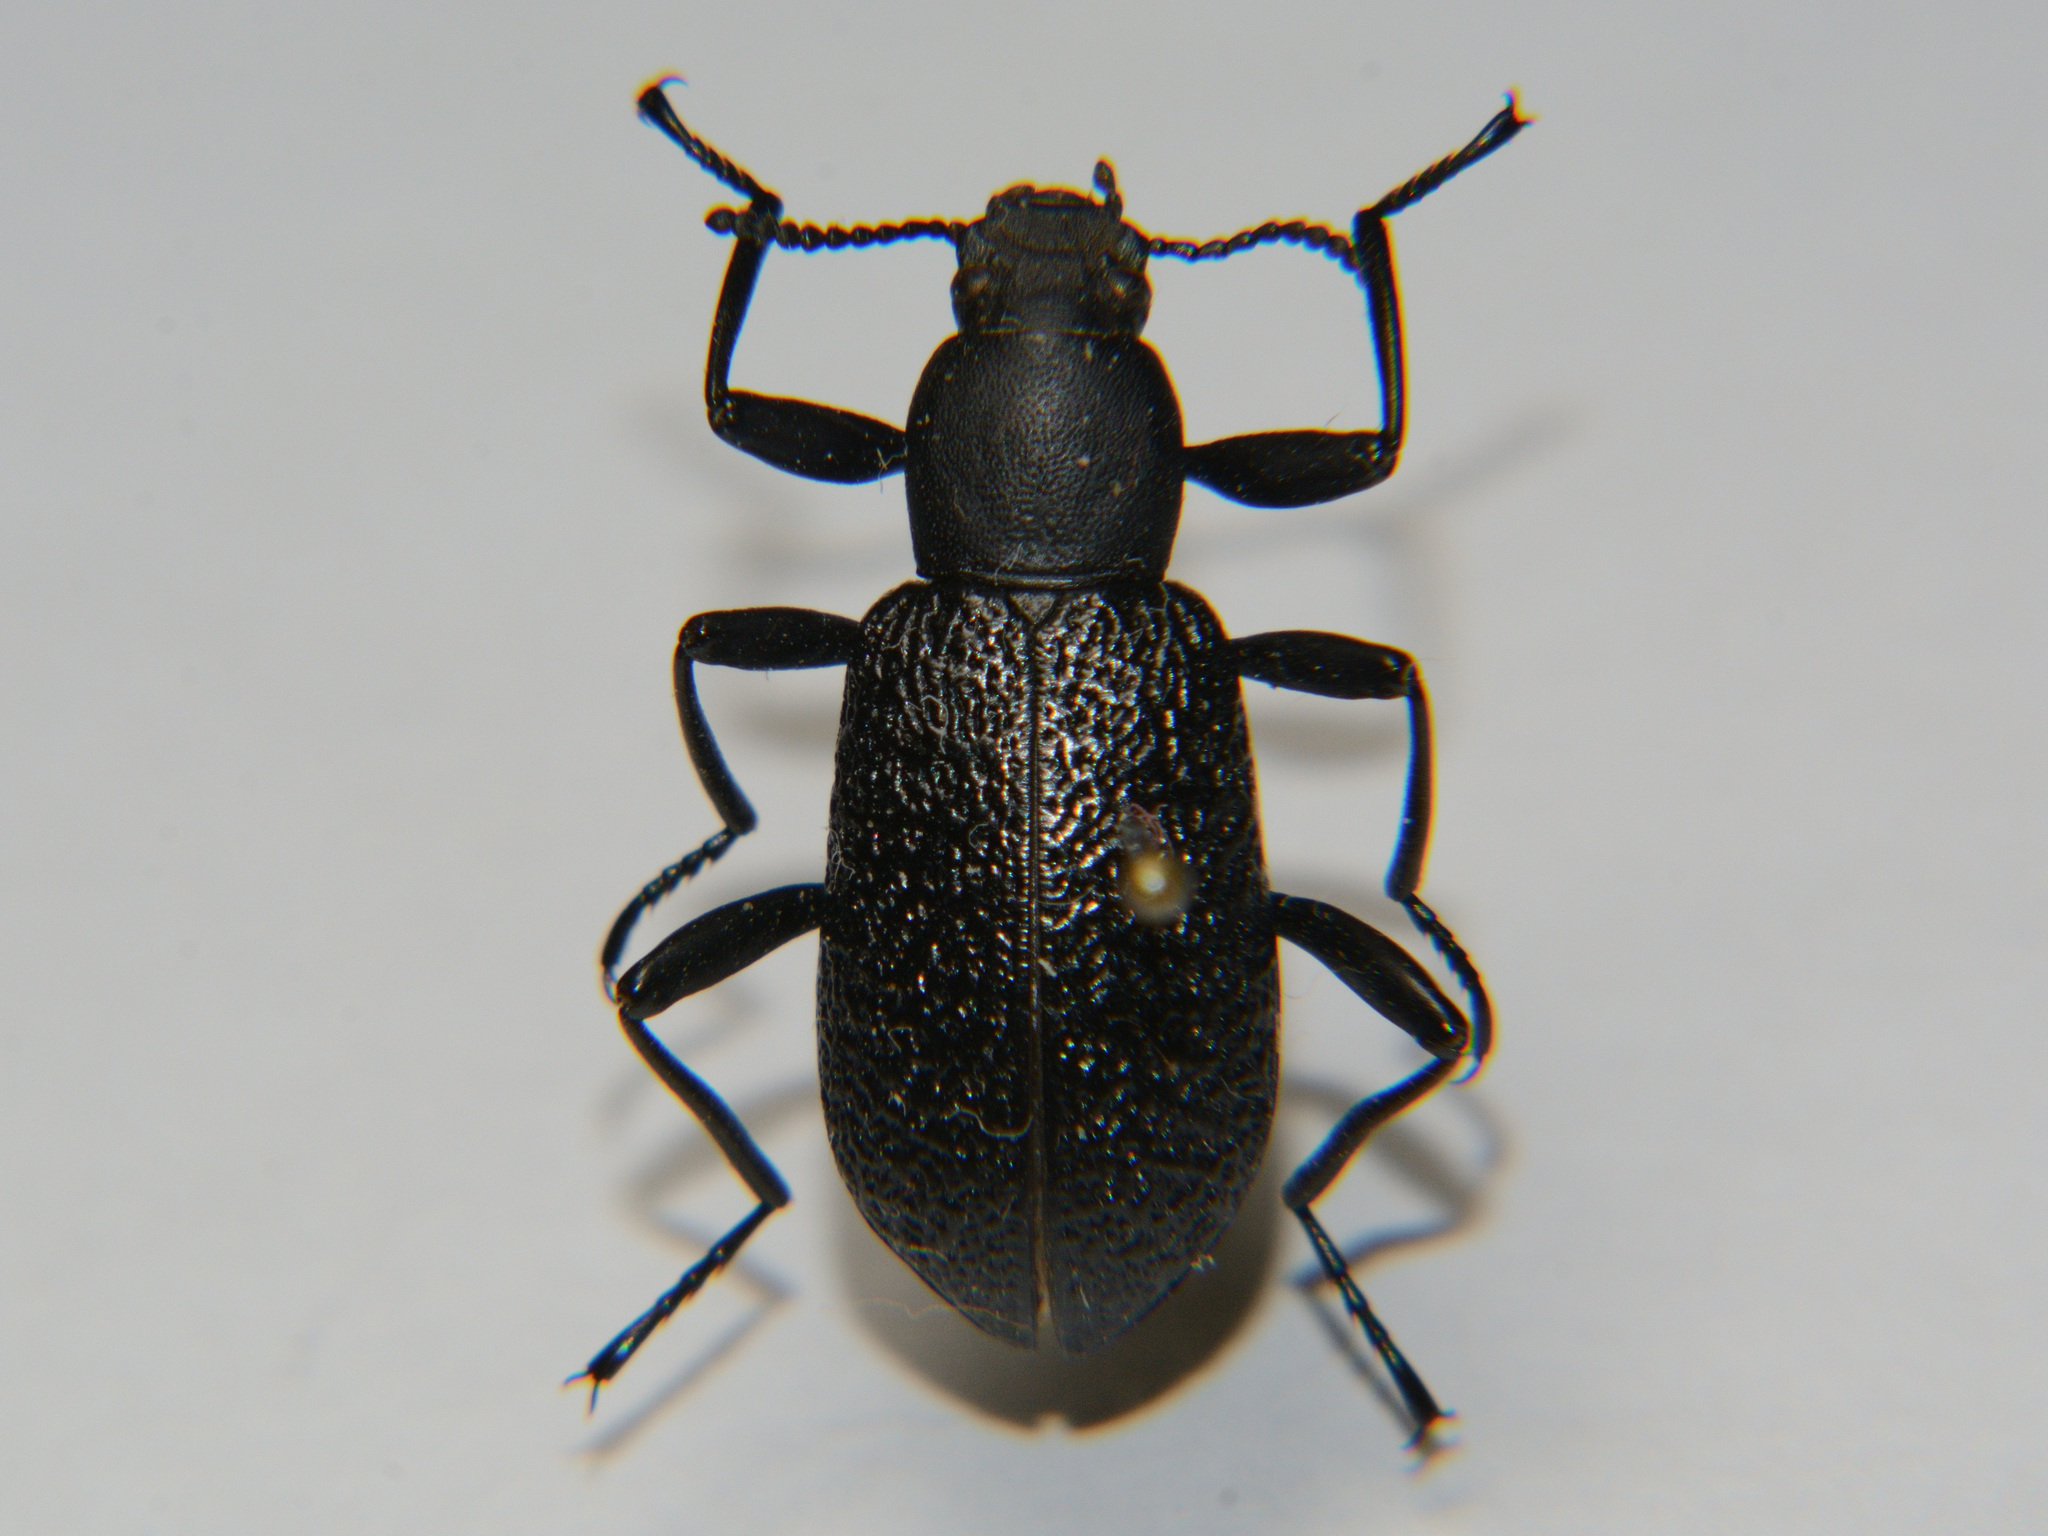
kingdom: Animalia
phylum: Arthropoda
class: Insecta
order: Coleoptera
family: Tenebrionidae
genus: Upis
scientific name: Upis ceramboides
